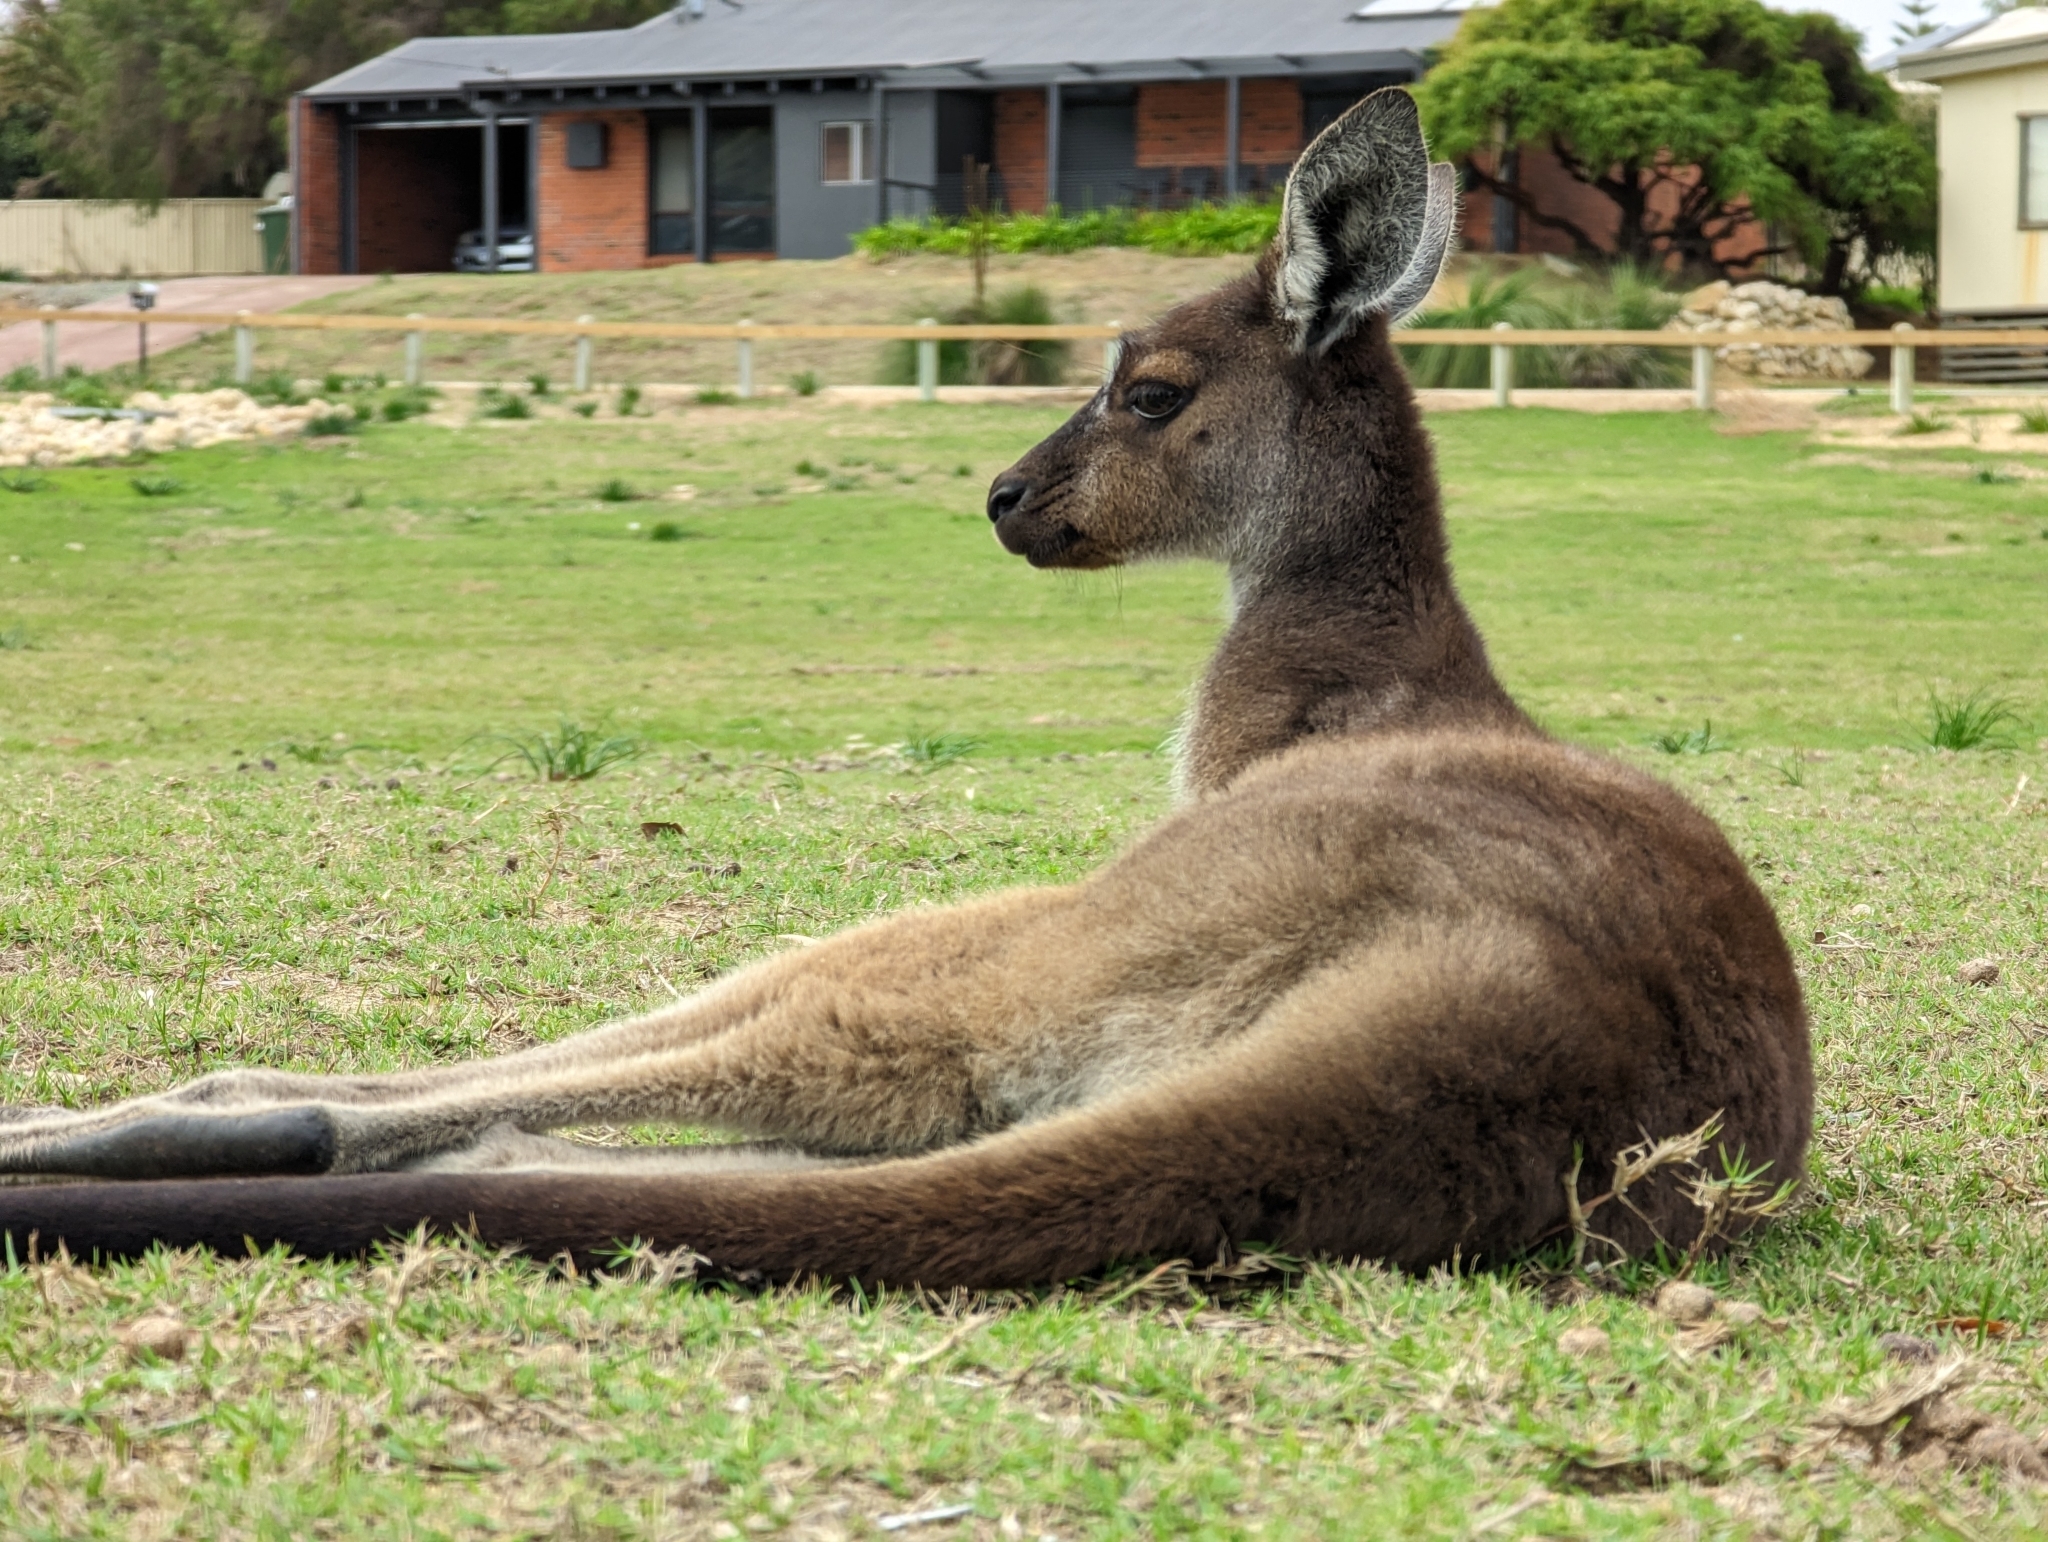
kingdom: Animalia
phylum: Chordata
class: Mammalia
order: Diprotodontia
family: Macropodidae
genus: Macropus
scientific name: Macropus fuliginosus
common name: Western grey kangaroo
